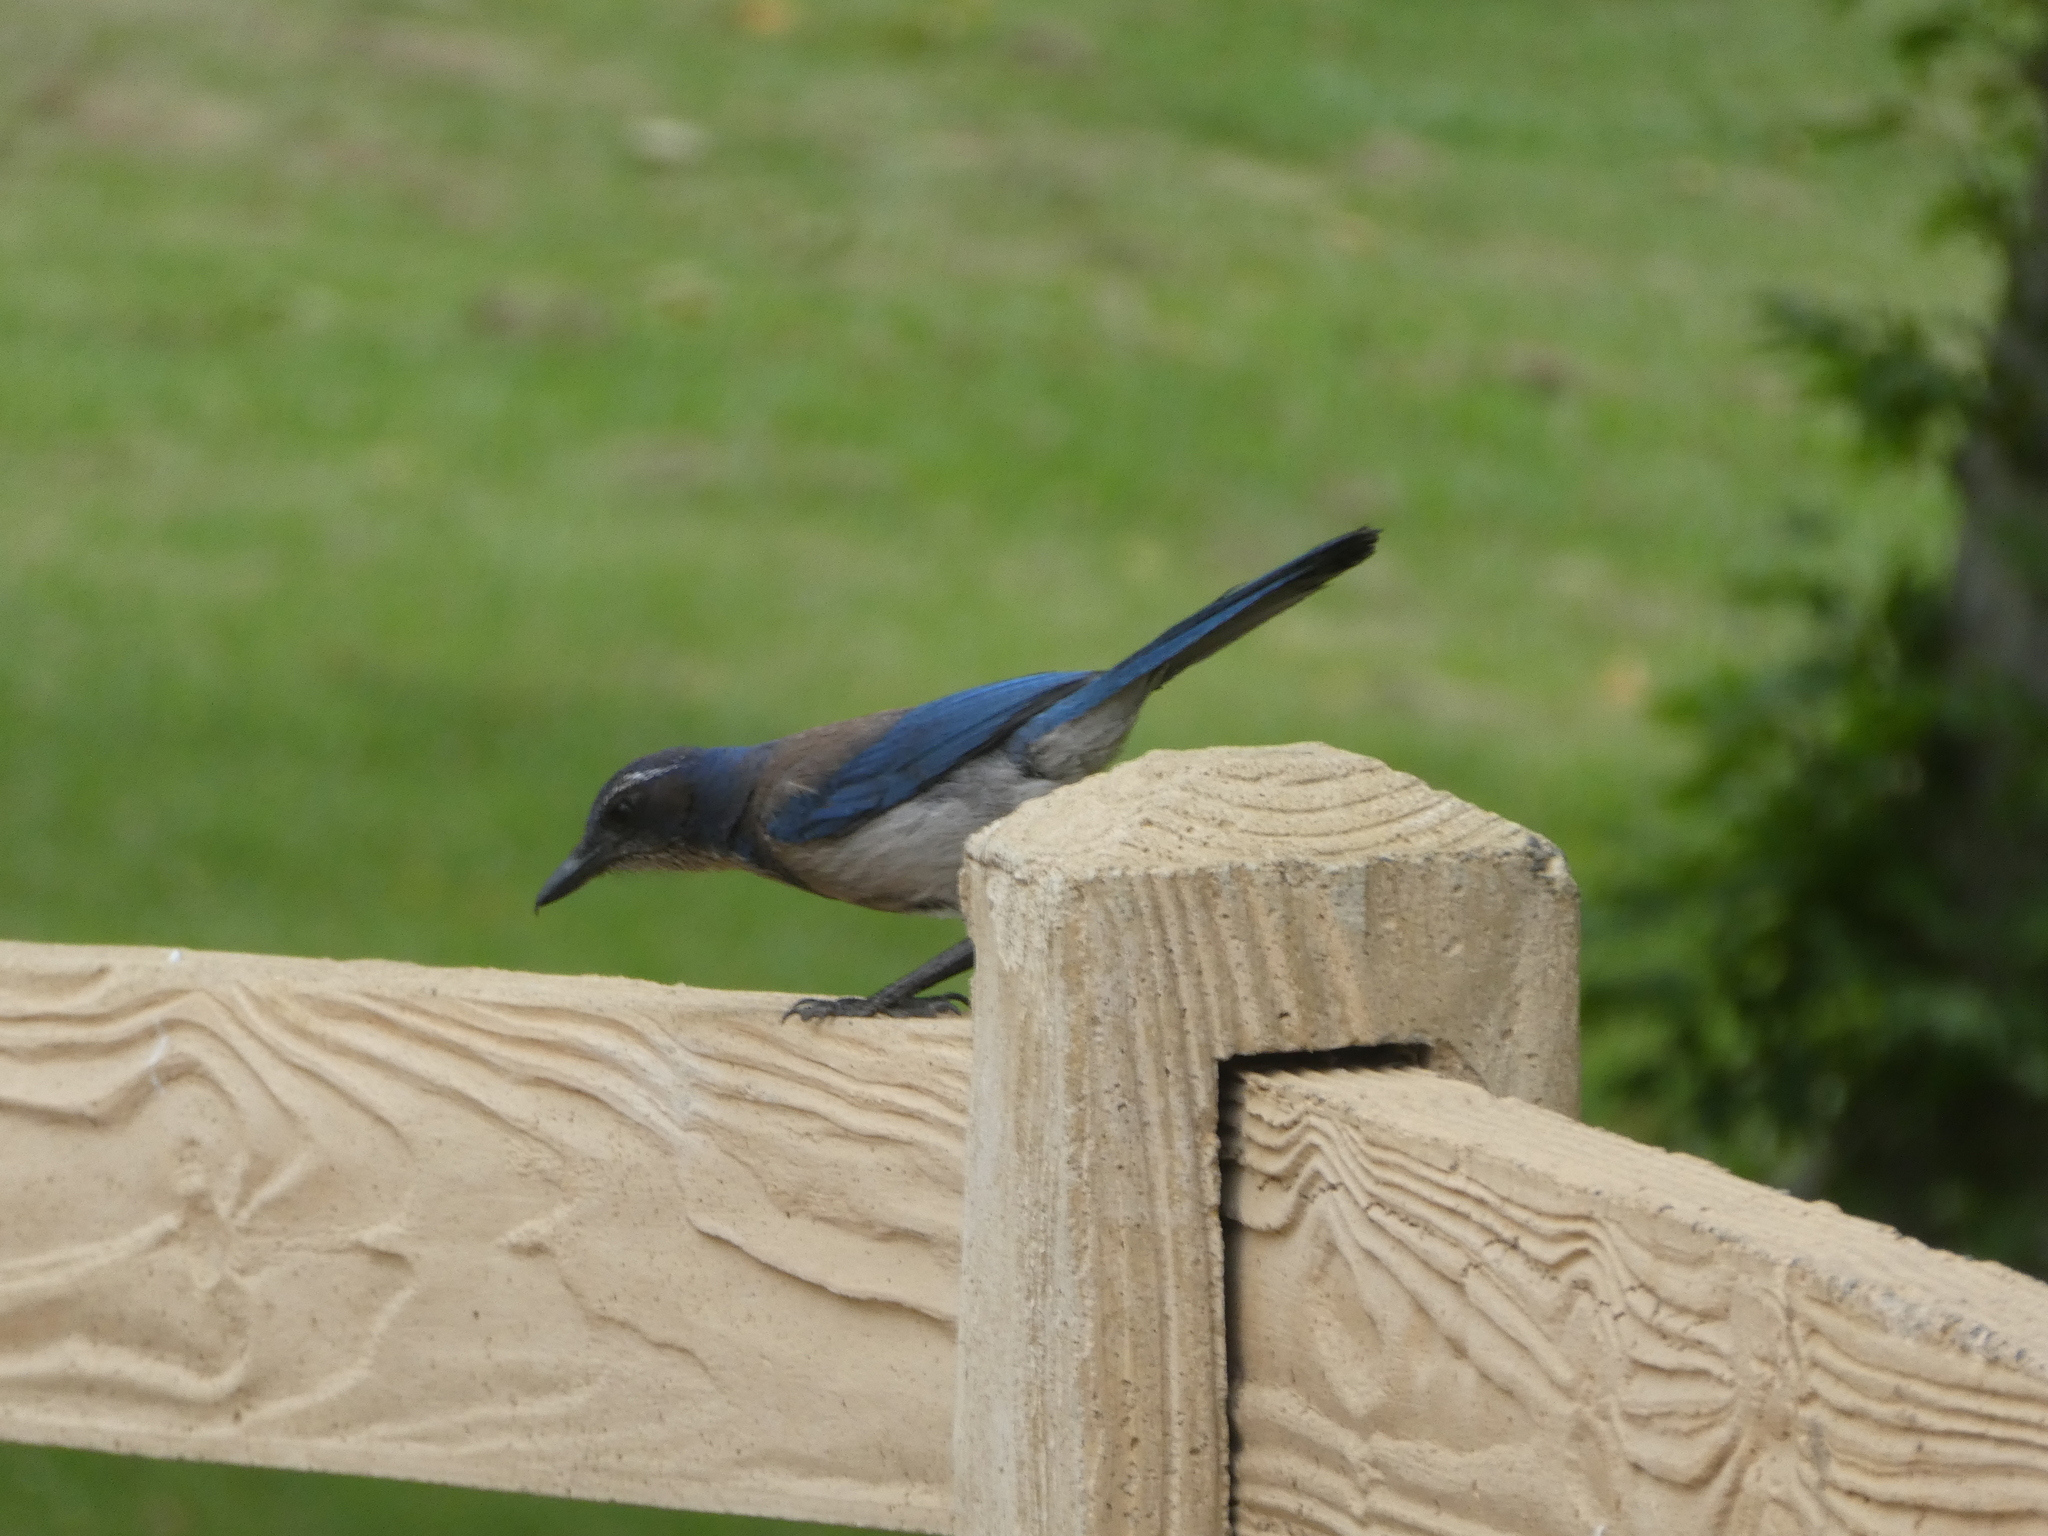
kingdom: Animalia
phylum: Chordata
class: Aves
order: Passeriformes
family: Corvidae
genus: Aphelocoma
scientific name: Aphelocoma californica
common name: California scrub-jay
